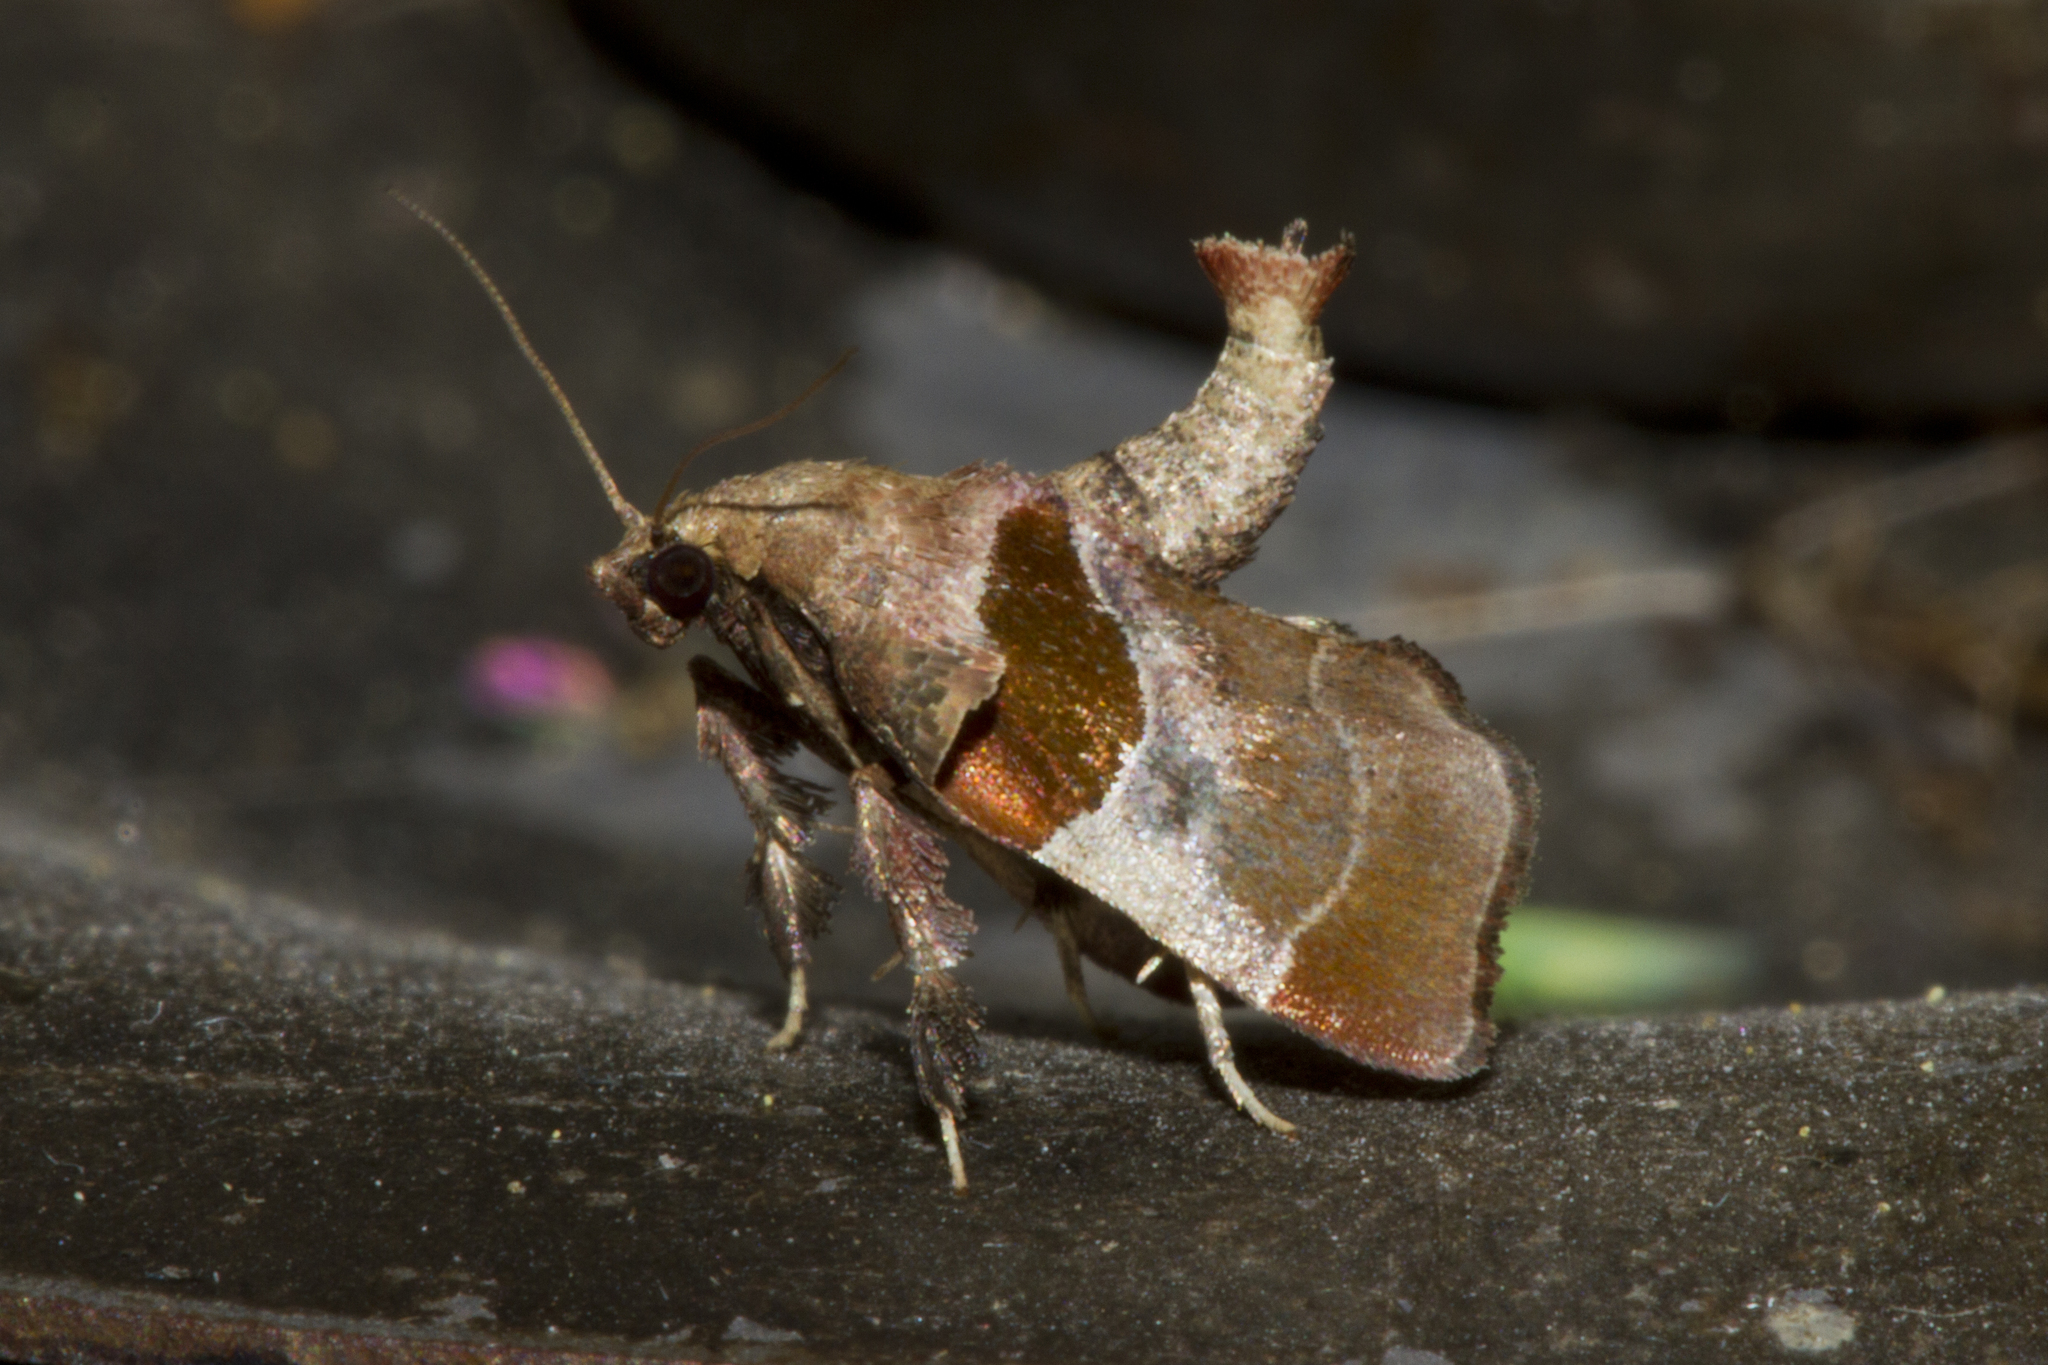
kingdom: Animalia
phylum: Arthropoda
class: Insecta
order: Lepidoptera
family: Pyralidae
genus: Tosale
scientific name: Tosale oviplagalis
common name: Dimorphic tosale moth
